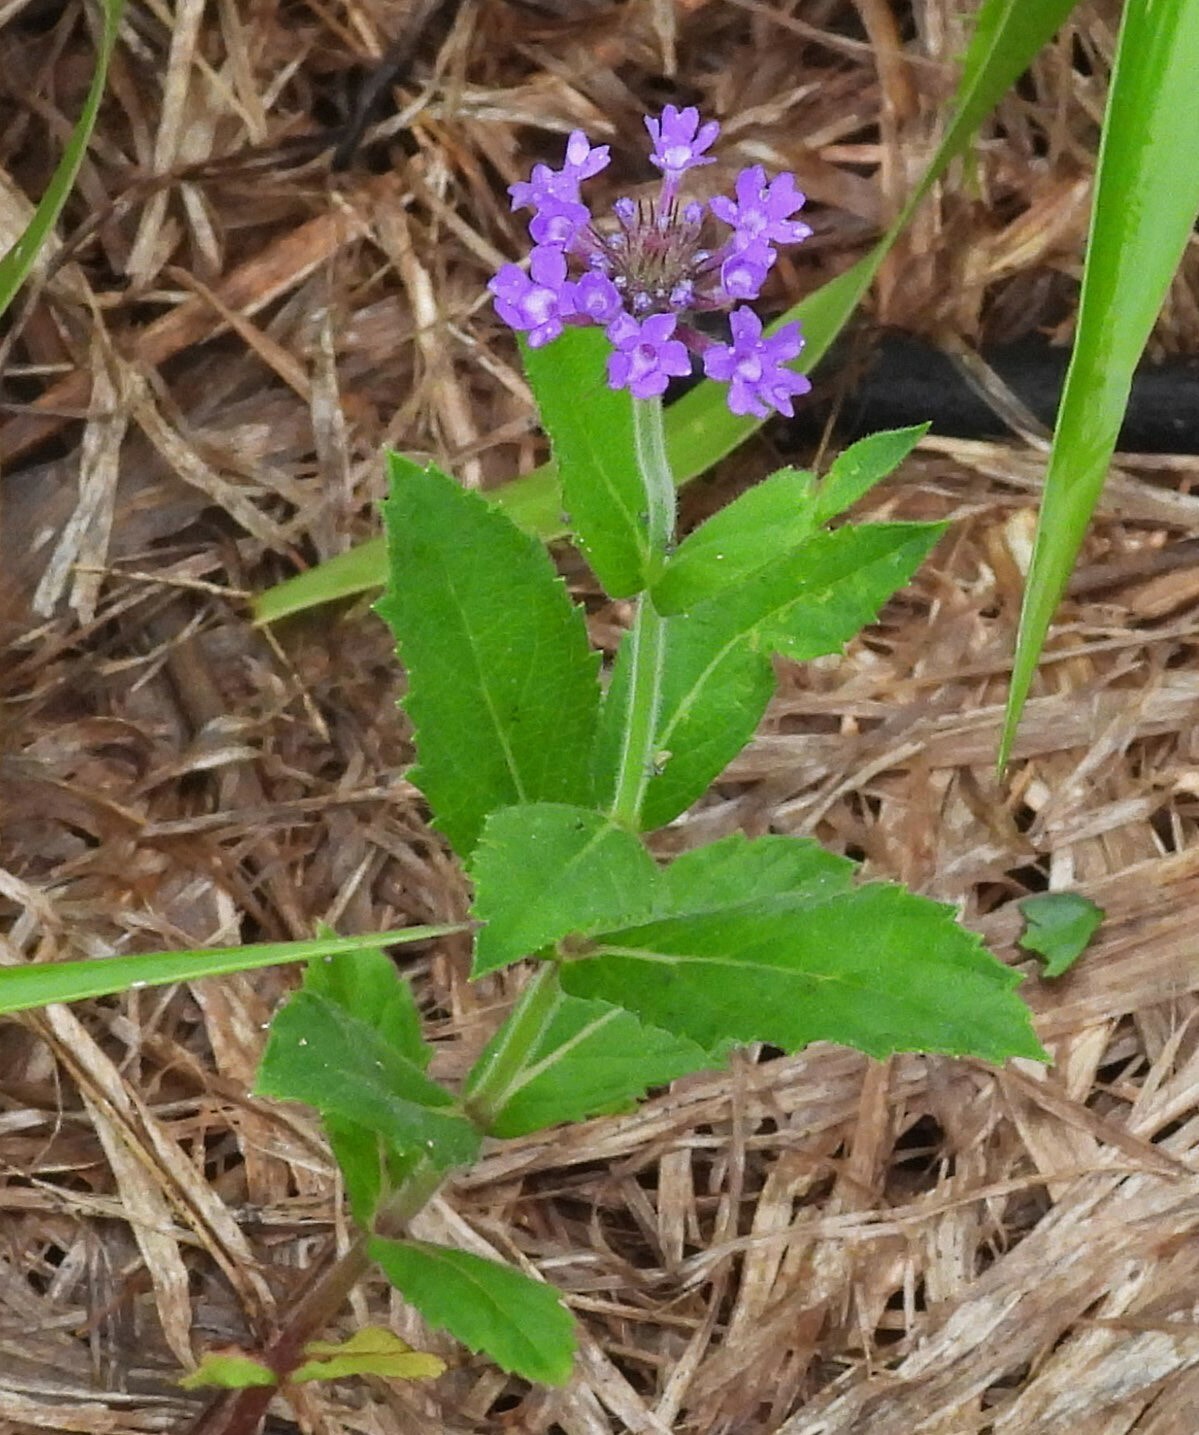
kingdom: Plantae
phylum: Tracheophyta
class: Magnoliopsida
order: Lamiales
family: Verbenaceae
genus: Verbena
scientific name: Verbena rigida
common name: Slender vervain
